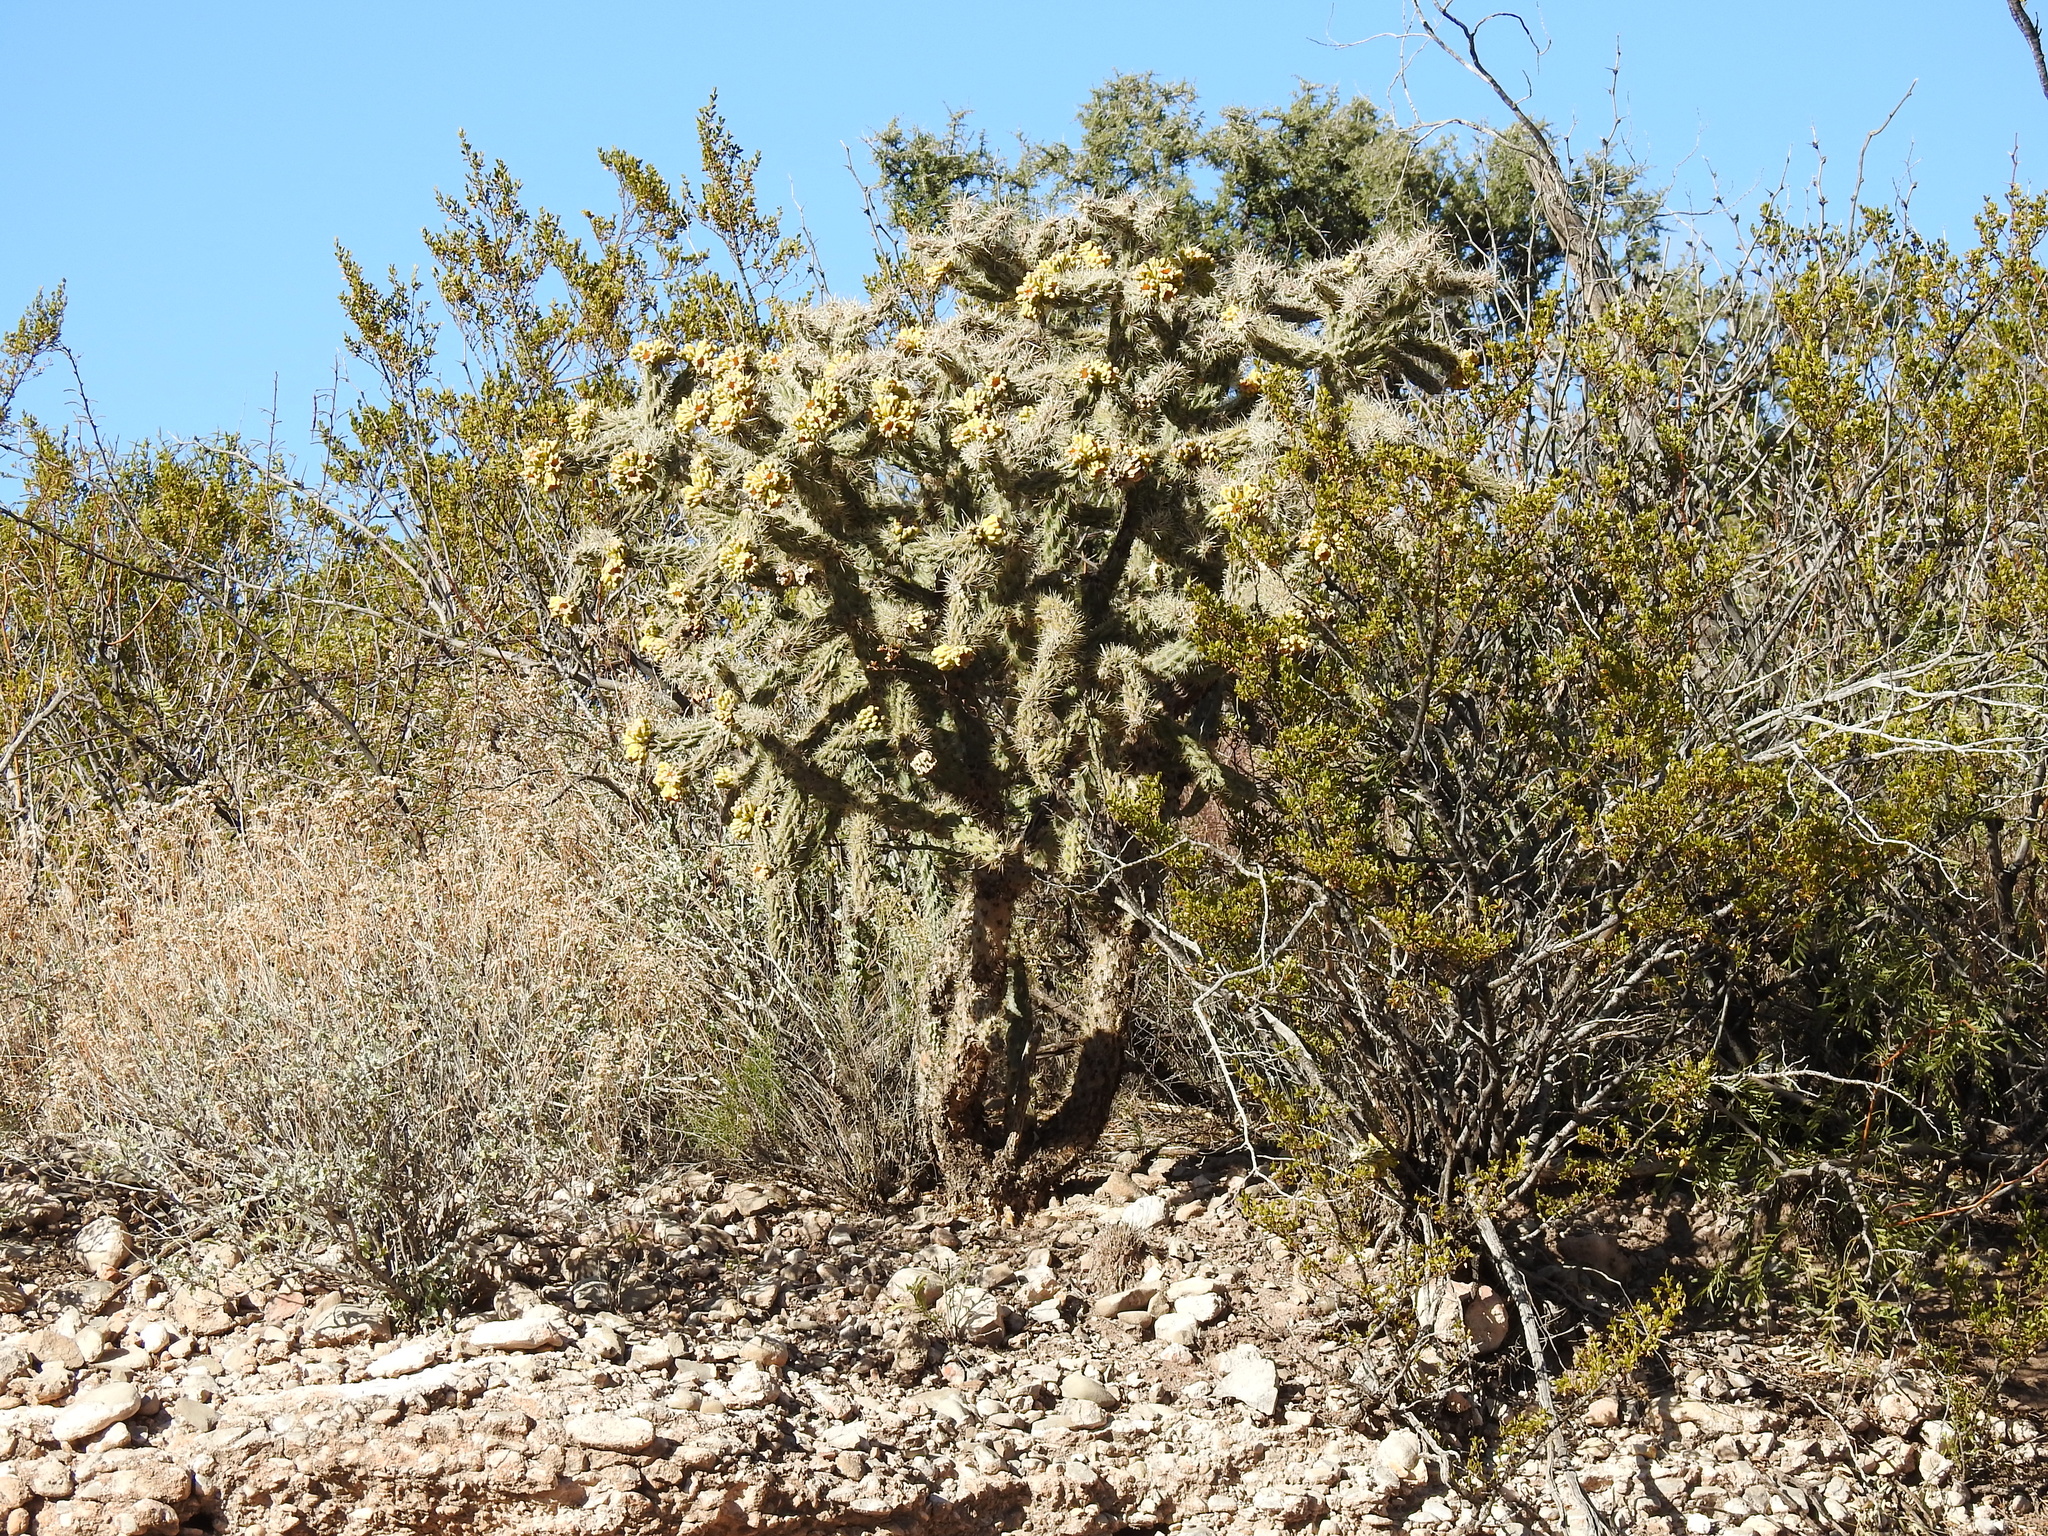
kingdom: Plantae
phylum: Tracheophyta
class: Magnoliopsida
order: Caryophyllales
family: Cactaceae
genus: Cylindropuntia
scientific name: Cylindropuntia imbricata
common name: Candelabrum cactus
